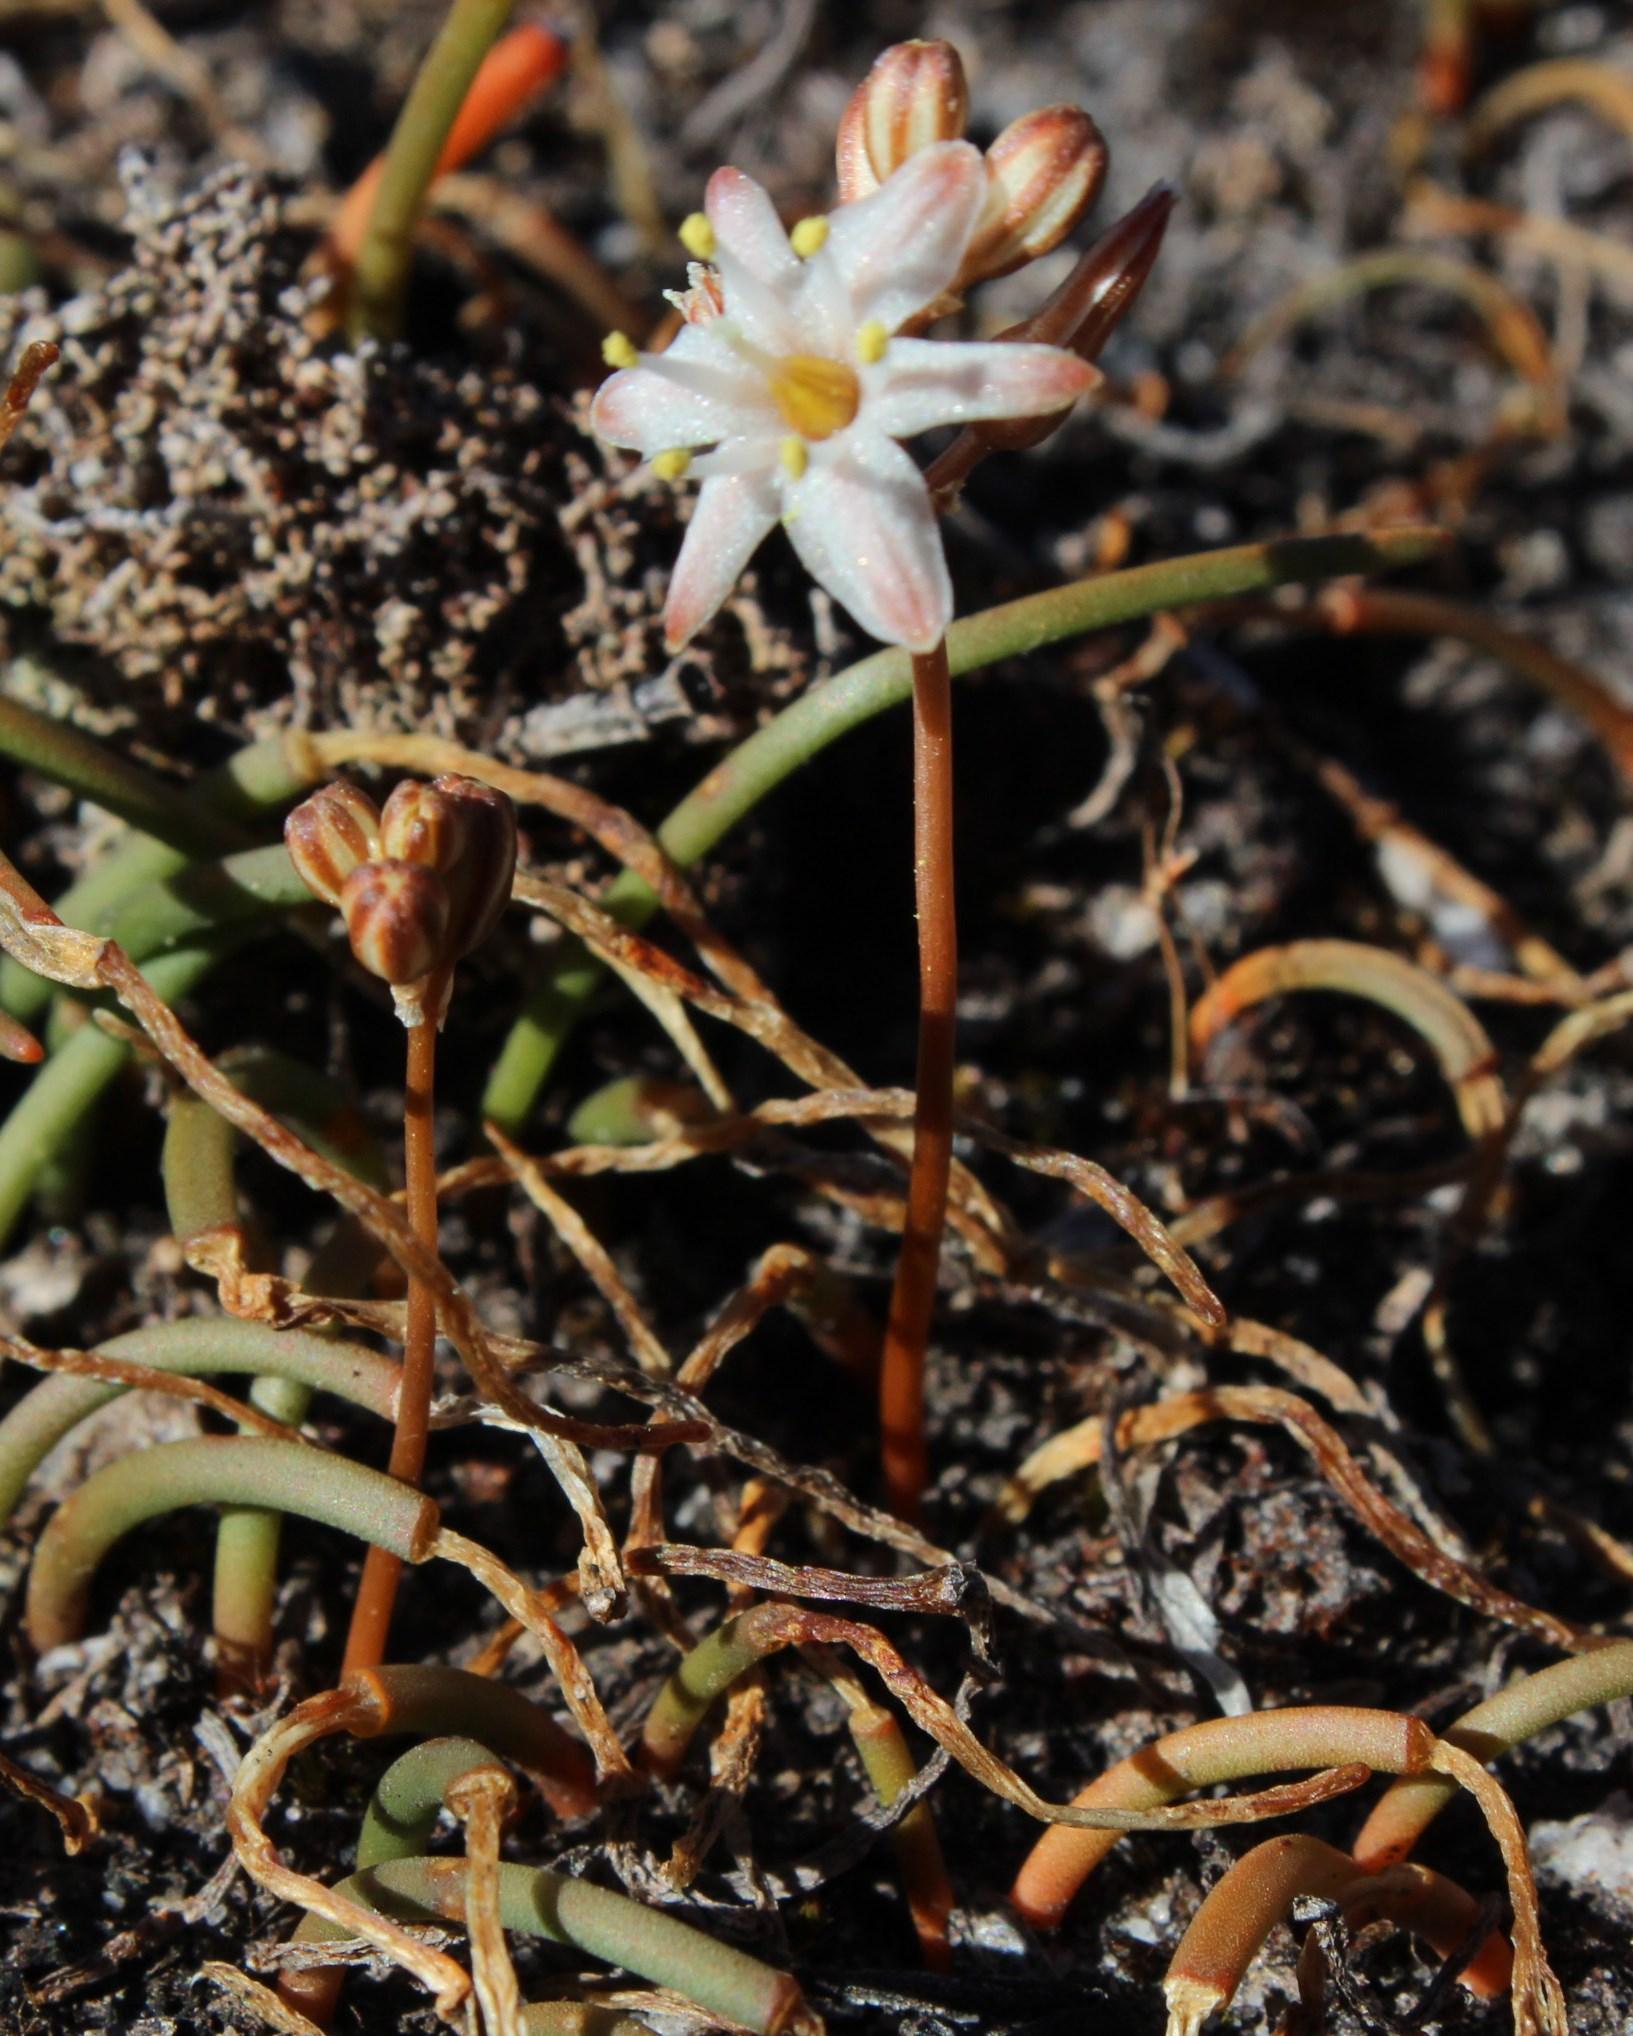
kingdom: Plantae
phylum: Tracheophyta
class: Liliopsida
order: Asparagales
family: Asparagaceae
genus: Drimia
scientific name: Drimia salteri
